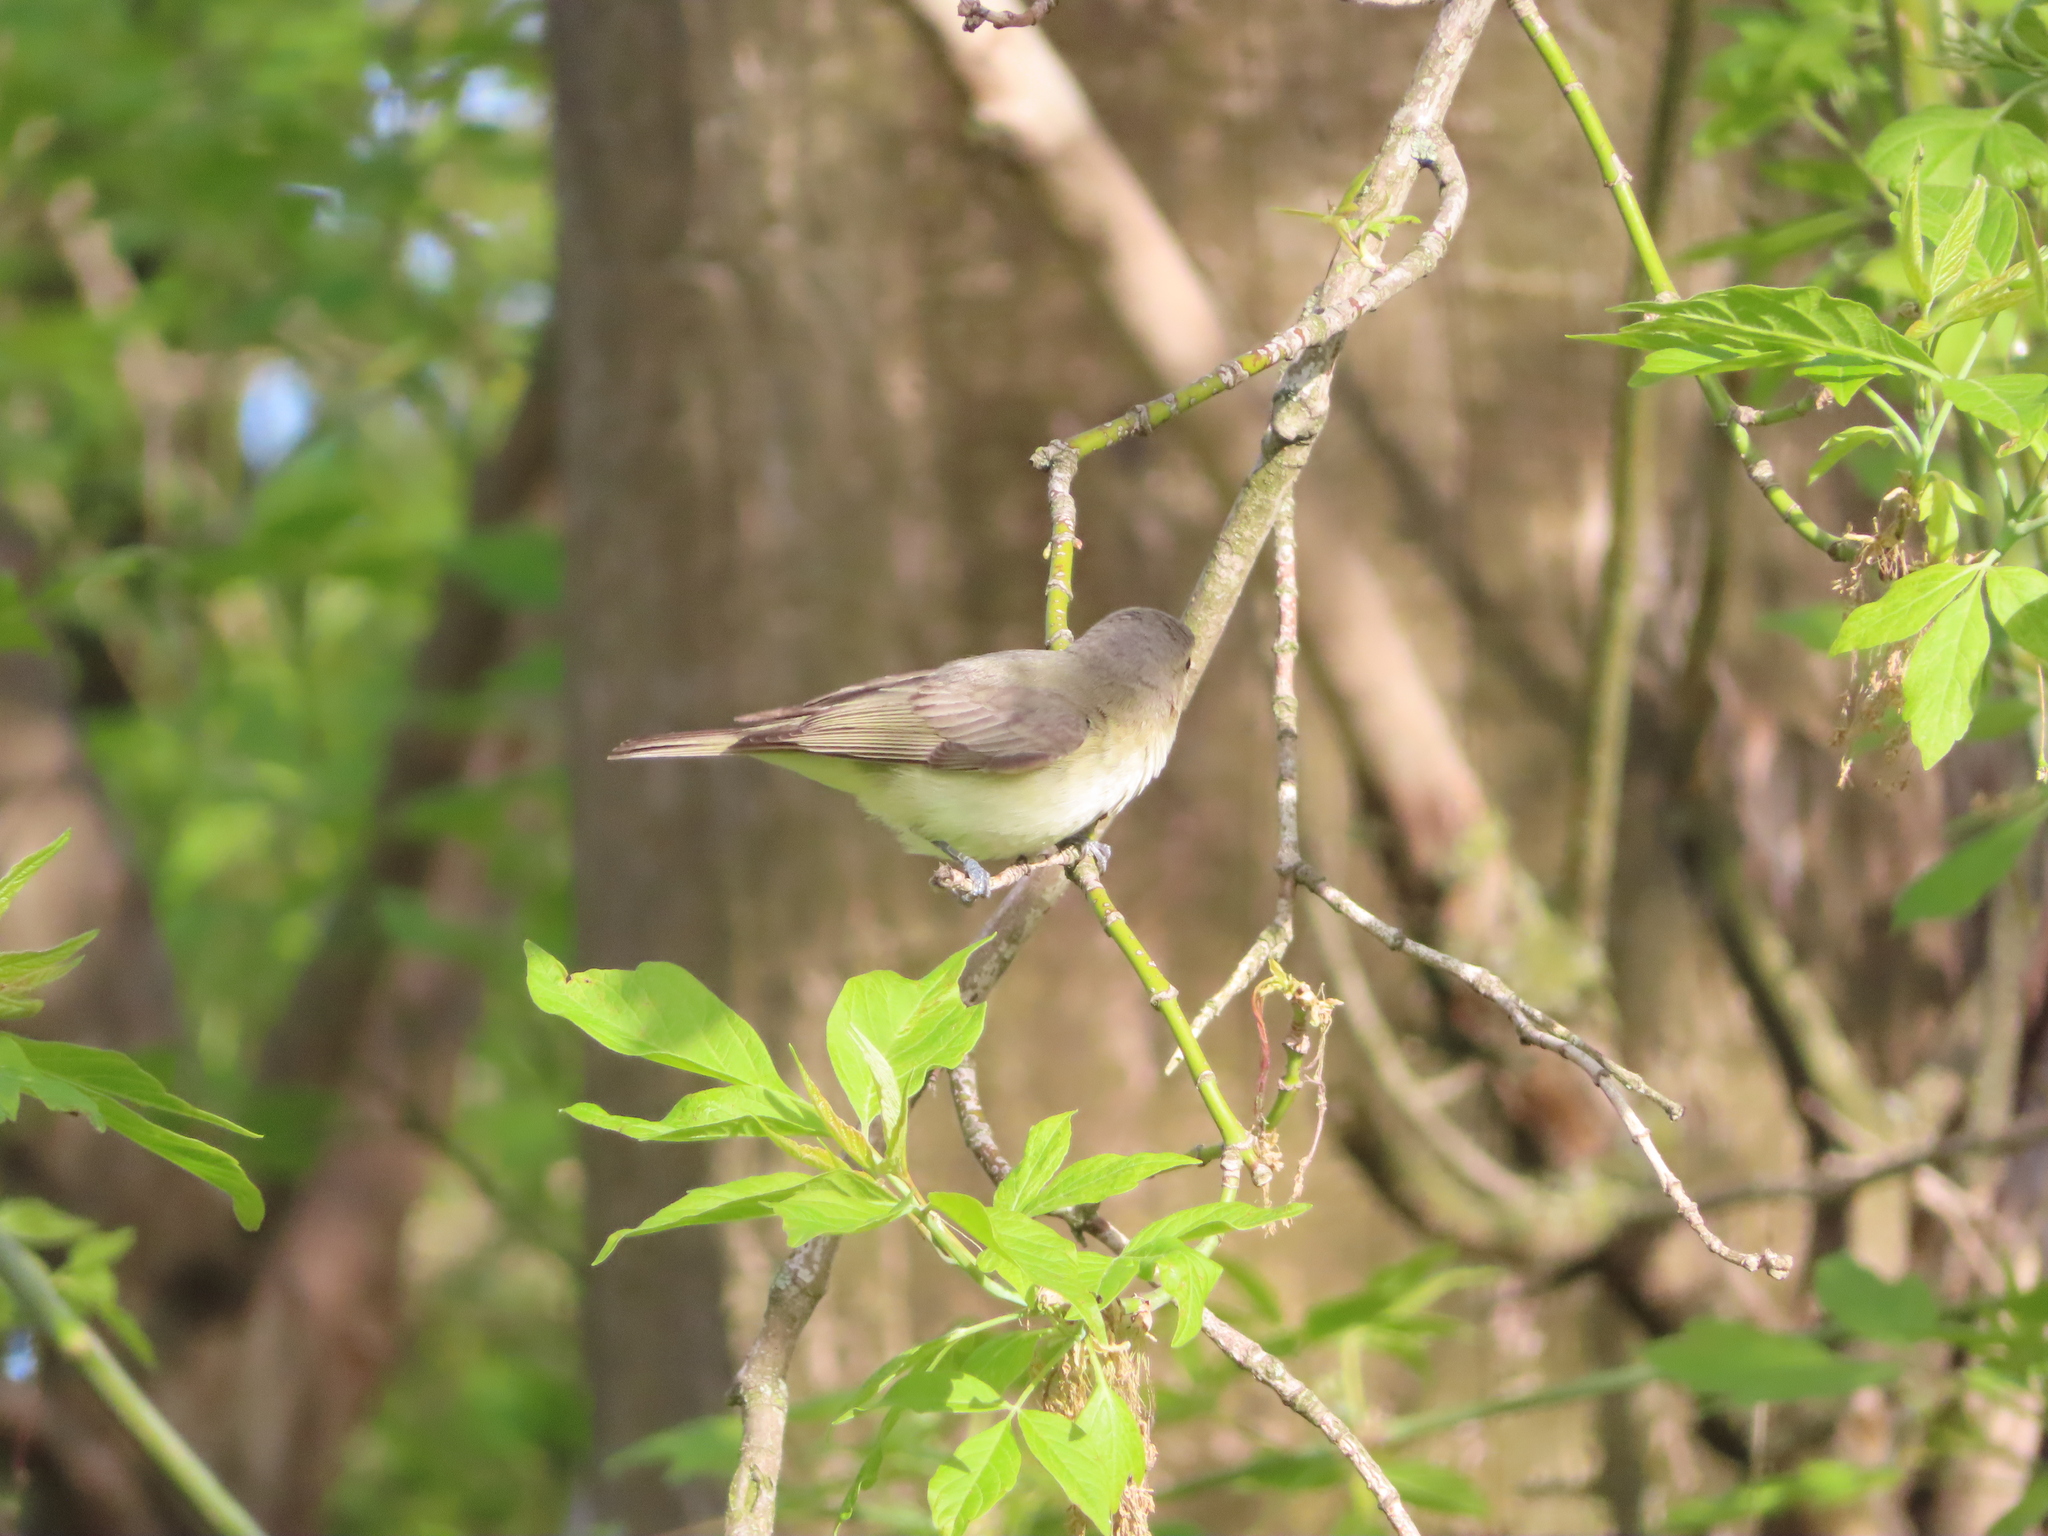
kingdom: Animalia
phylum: Chordata
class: Aves
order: Passeriformes
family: Vireonidae
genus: Vireo
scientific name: Vireo gilvus
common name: Warbling vireo
